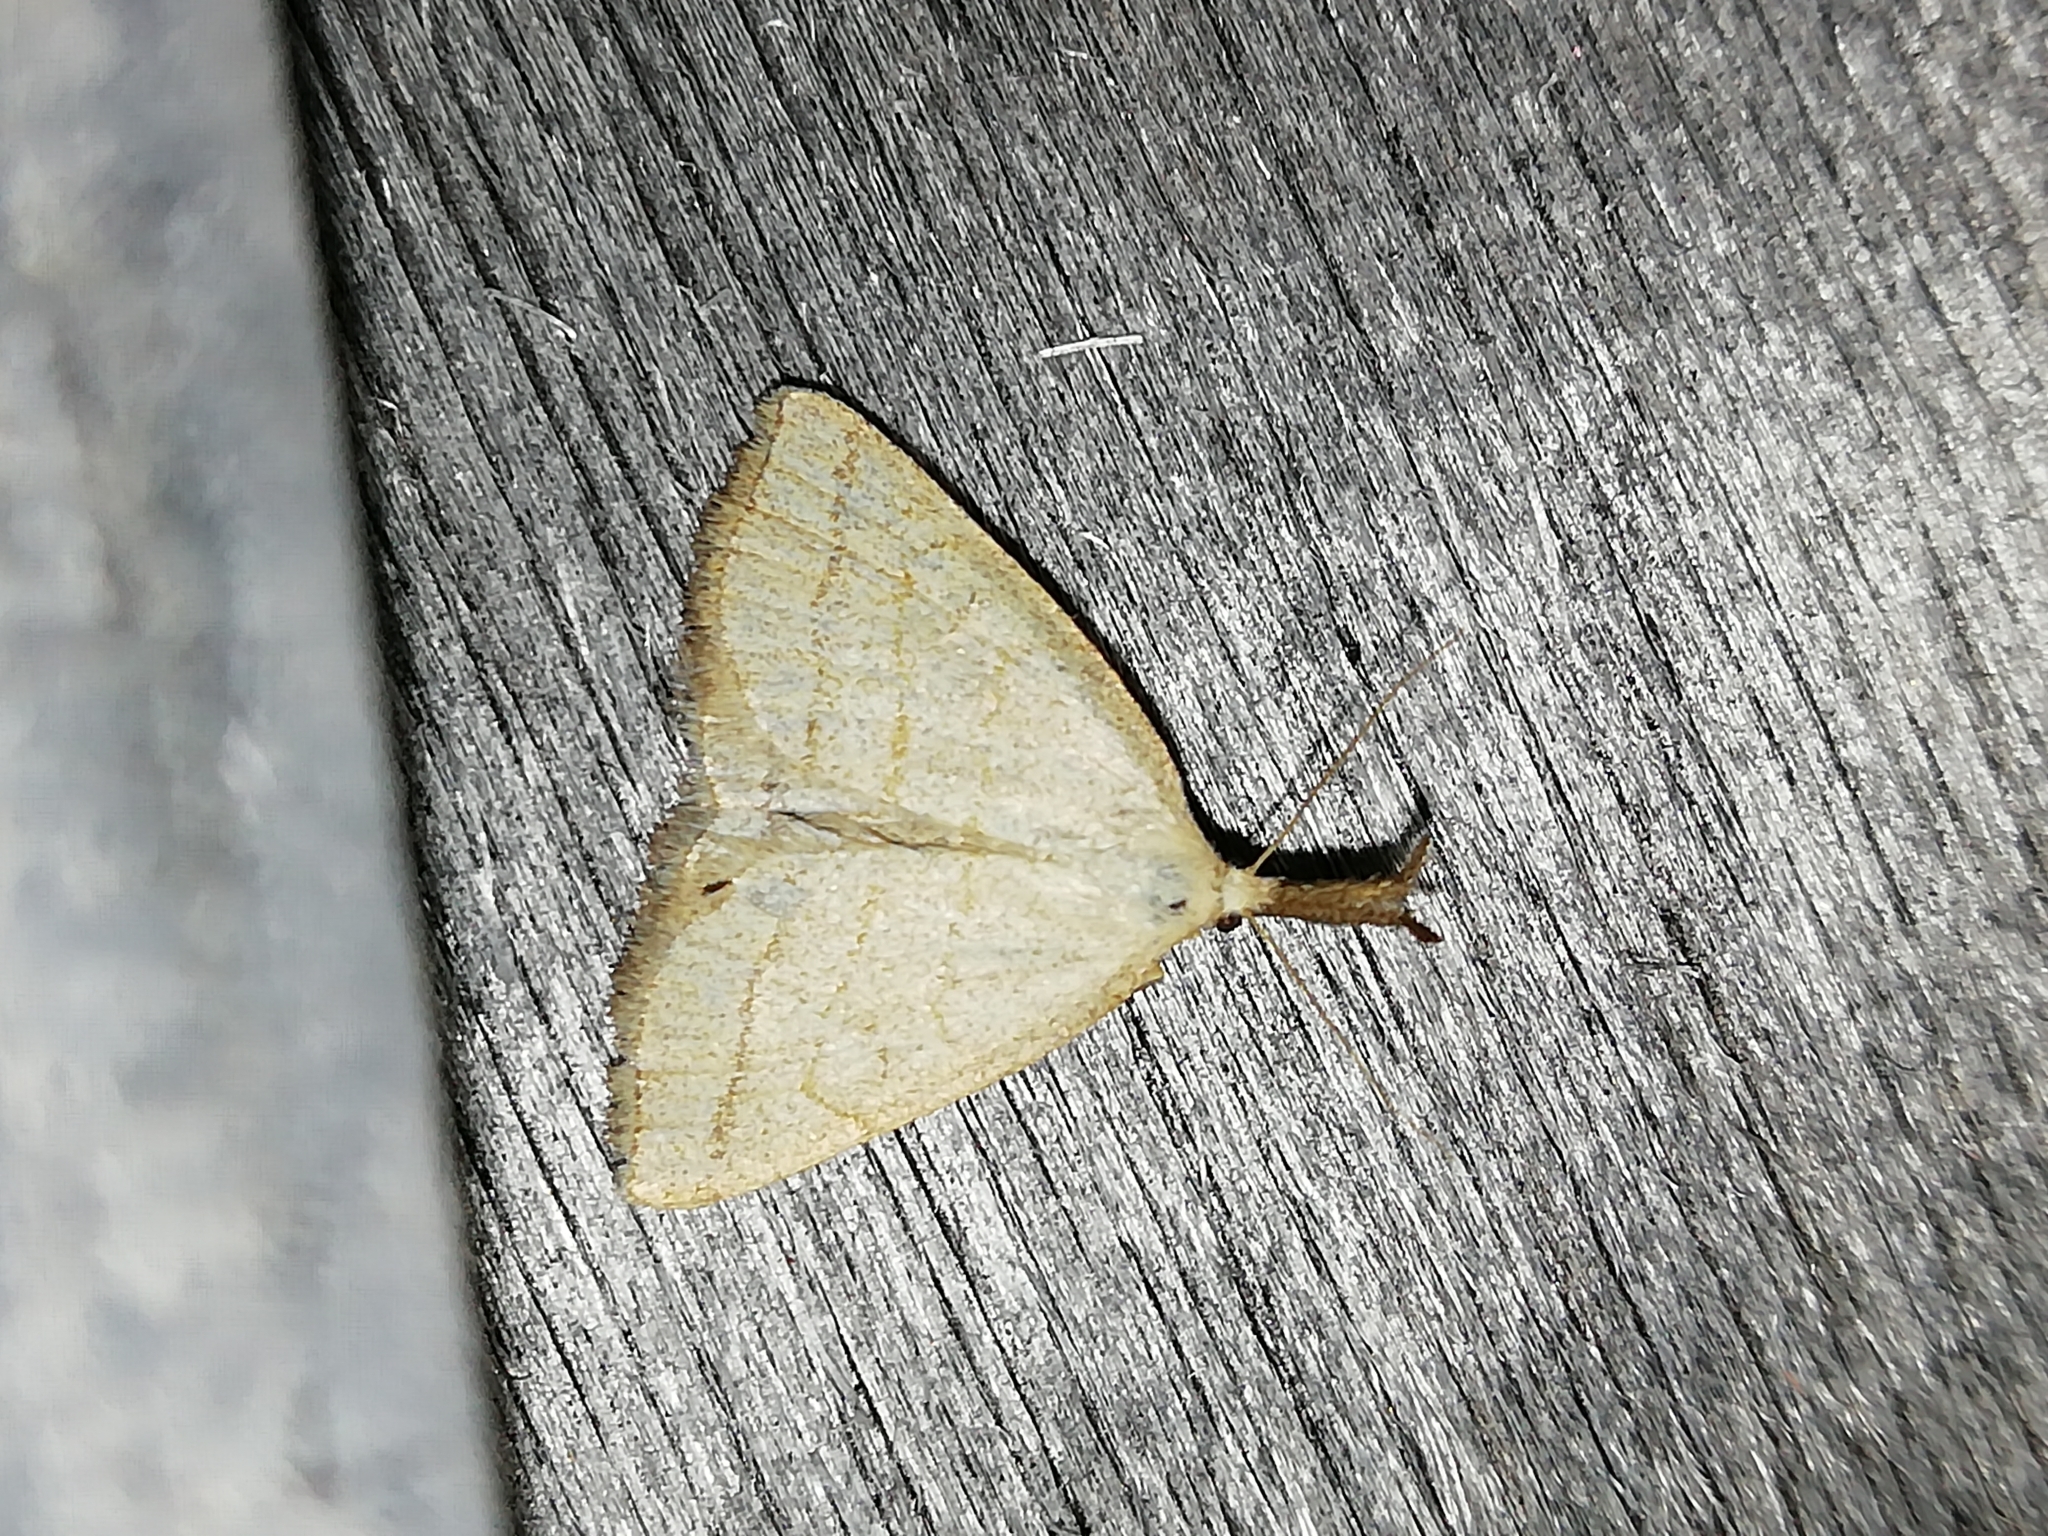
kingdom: Animalia
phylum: Arthropoda
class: Insecta
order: Lepidoptera
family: Erebidae
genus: Polypogon
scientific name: Polypogon tentacularia
